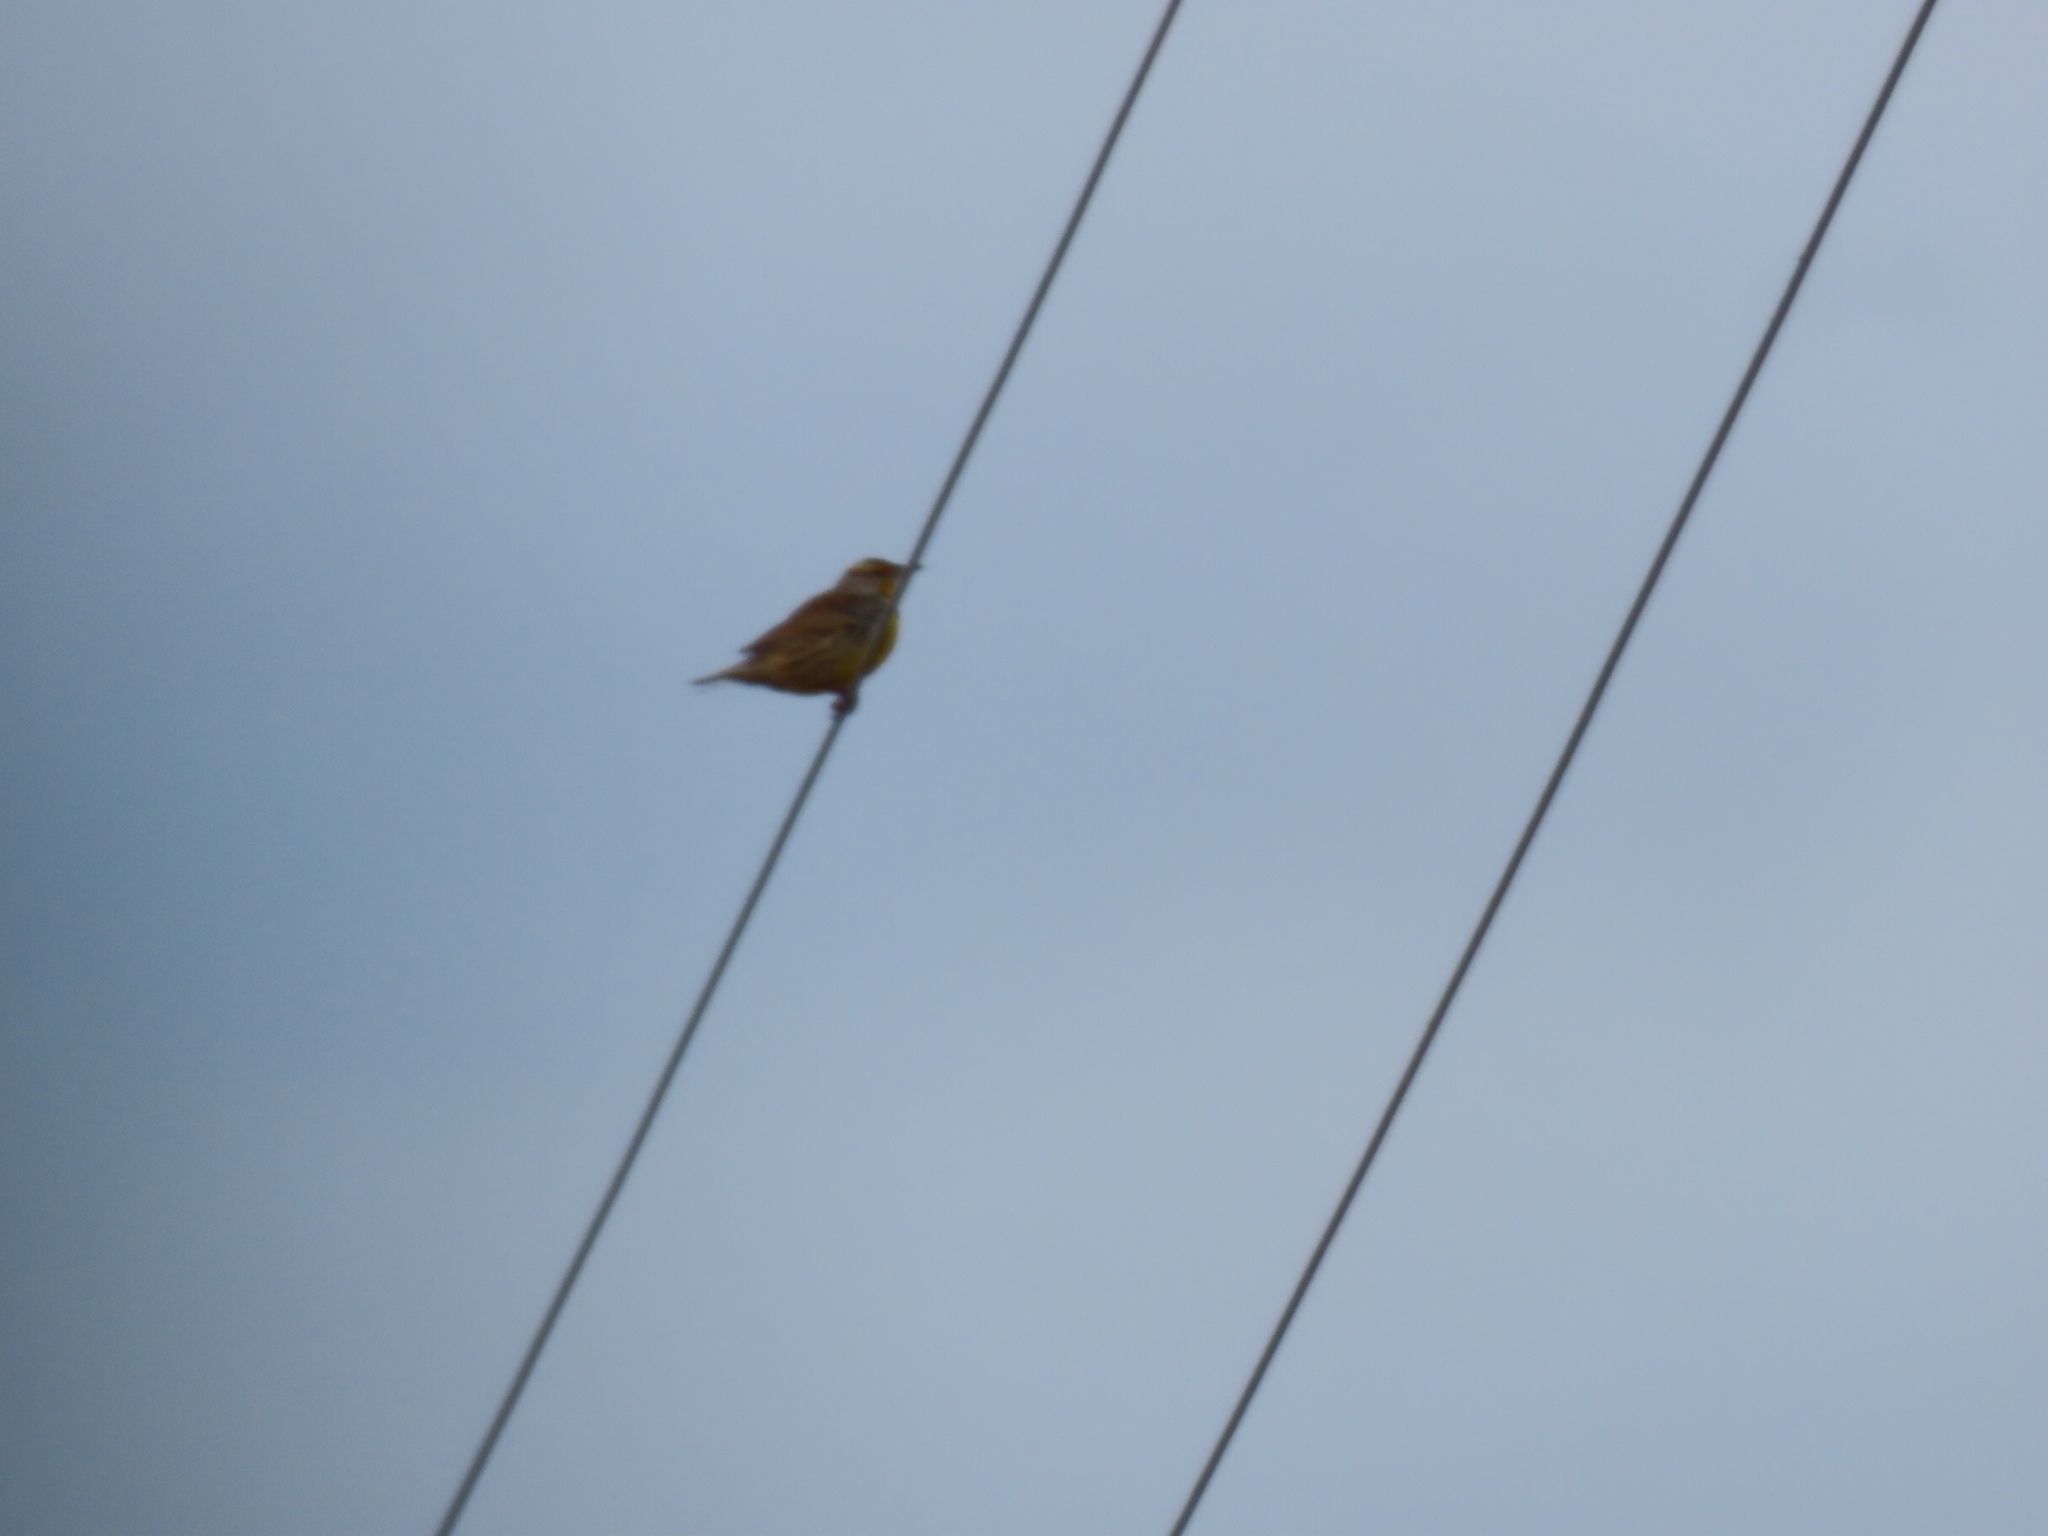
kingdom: Animalia
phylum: Chordata
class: Aves
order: Passeriformes
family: Icteridae
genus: Sturnella
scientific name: Sturnella magna
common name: Eastern meadowlark
